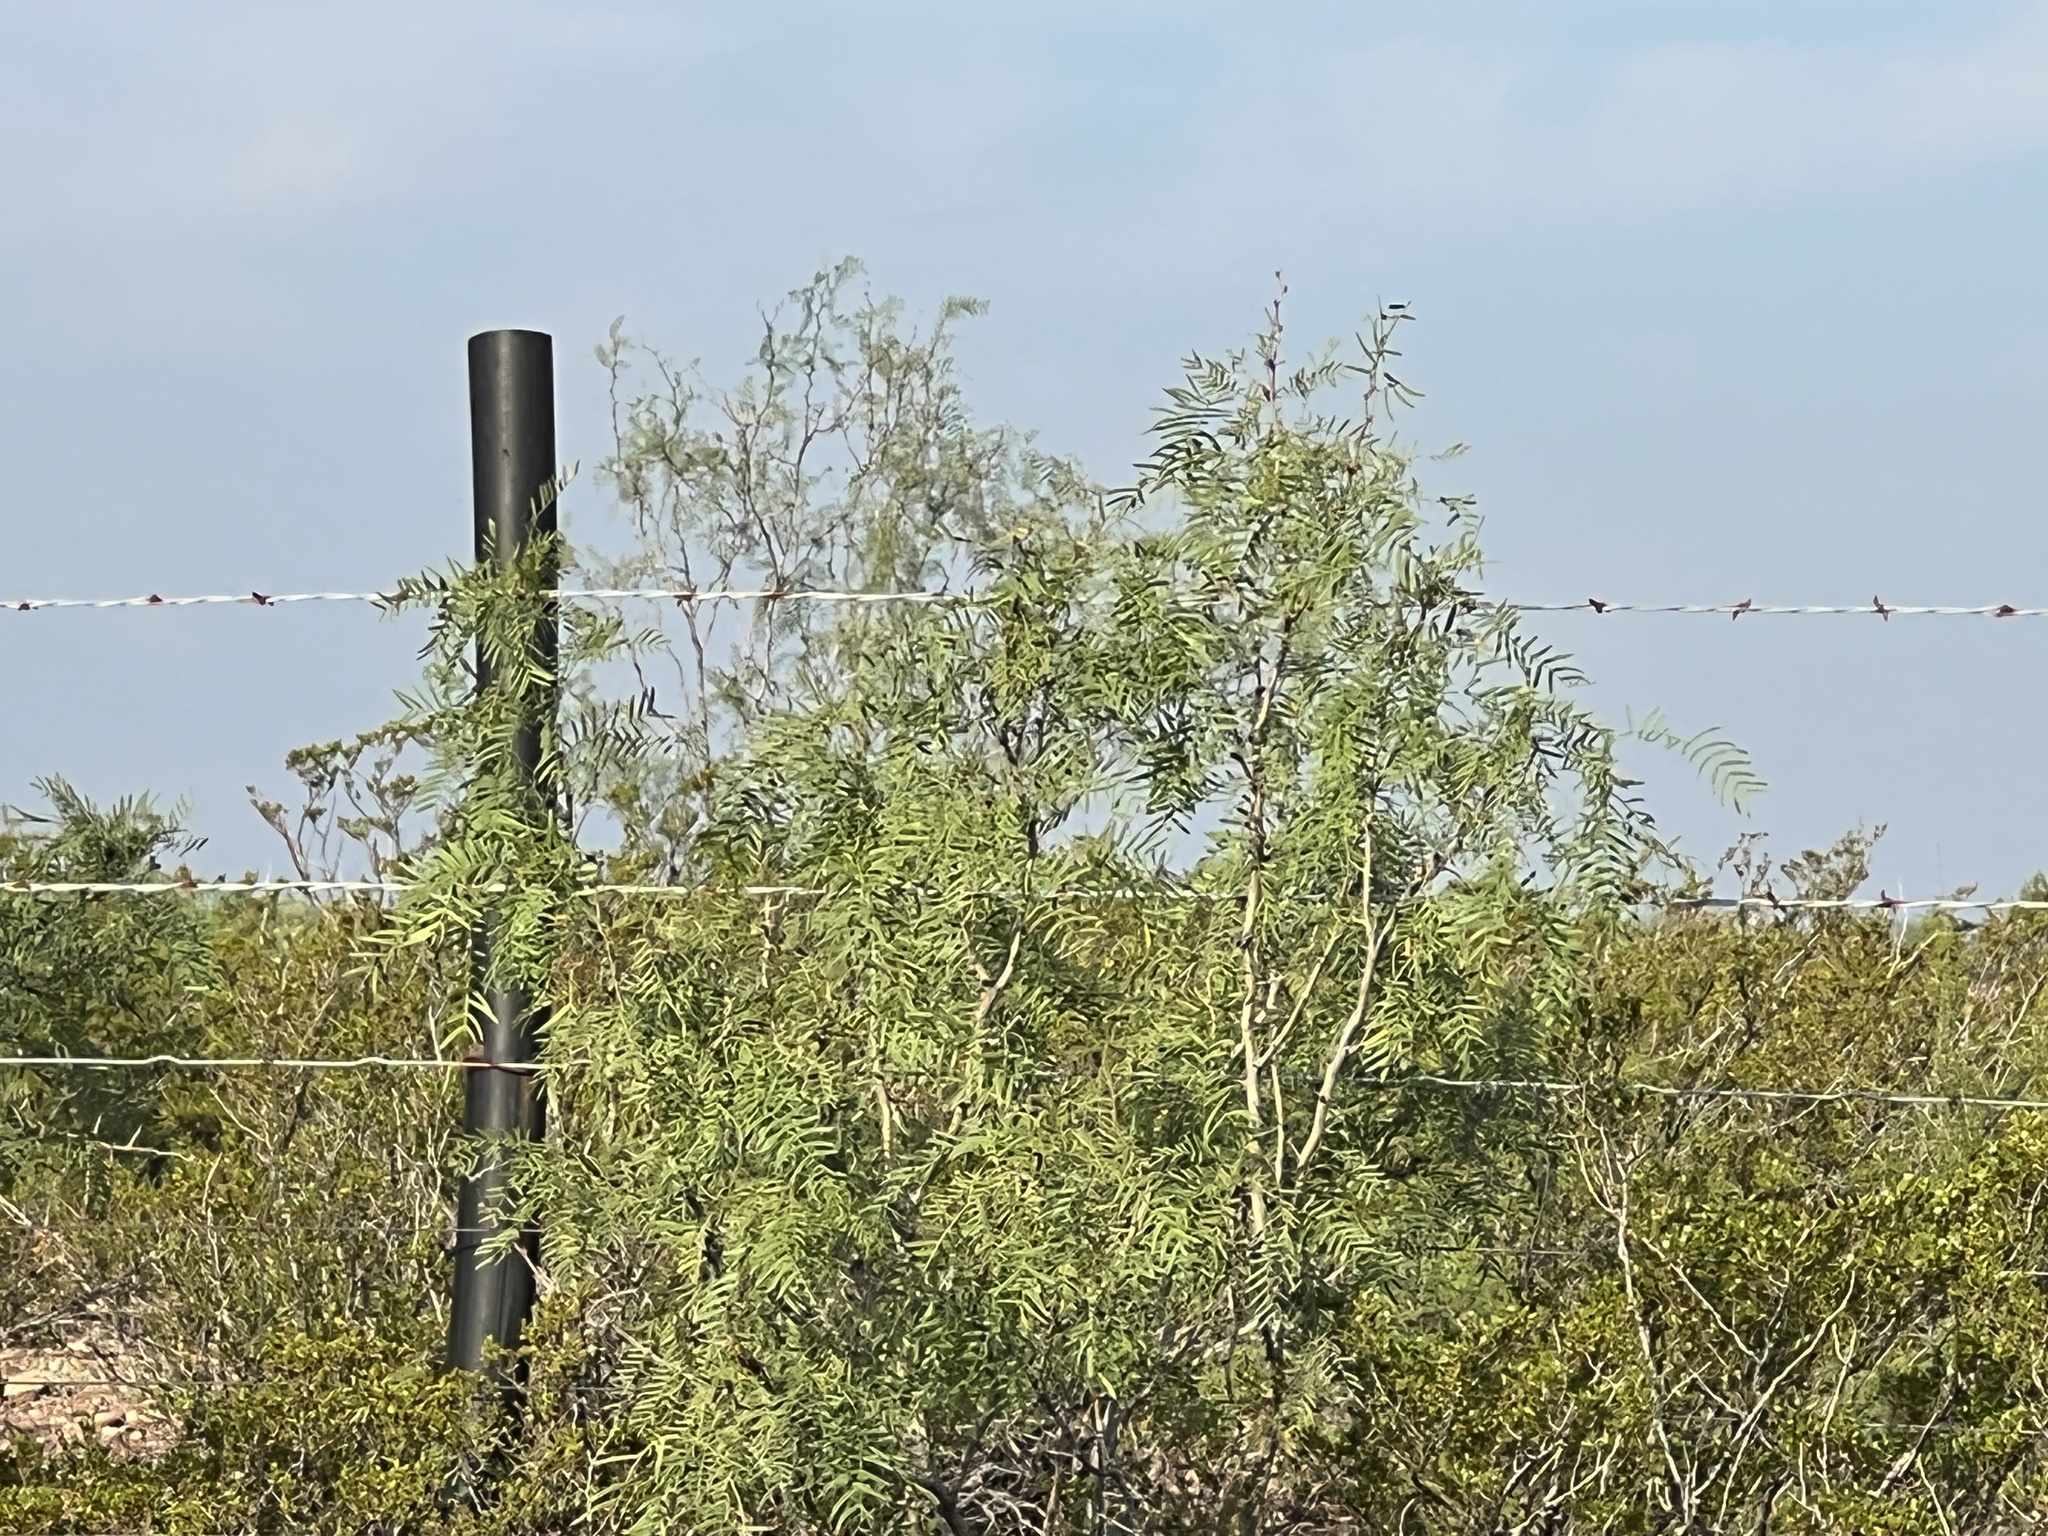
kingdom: Plantae
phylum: Tracheophyta
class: Magnoliopsida
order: Fabales
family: Fabaceae
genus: Prosopis
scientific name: Prosopis glandulosa
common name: Honey mesquite
